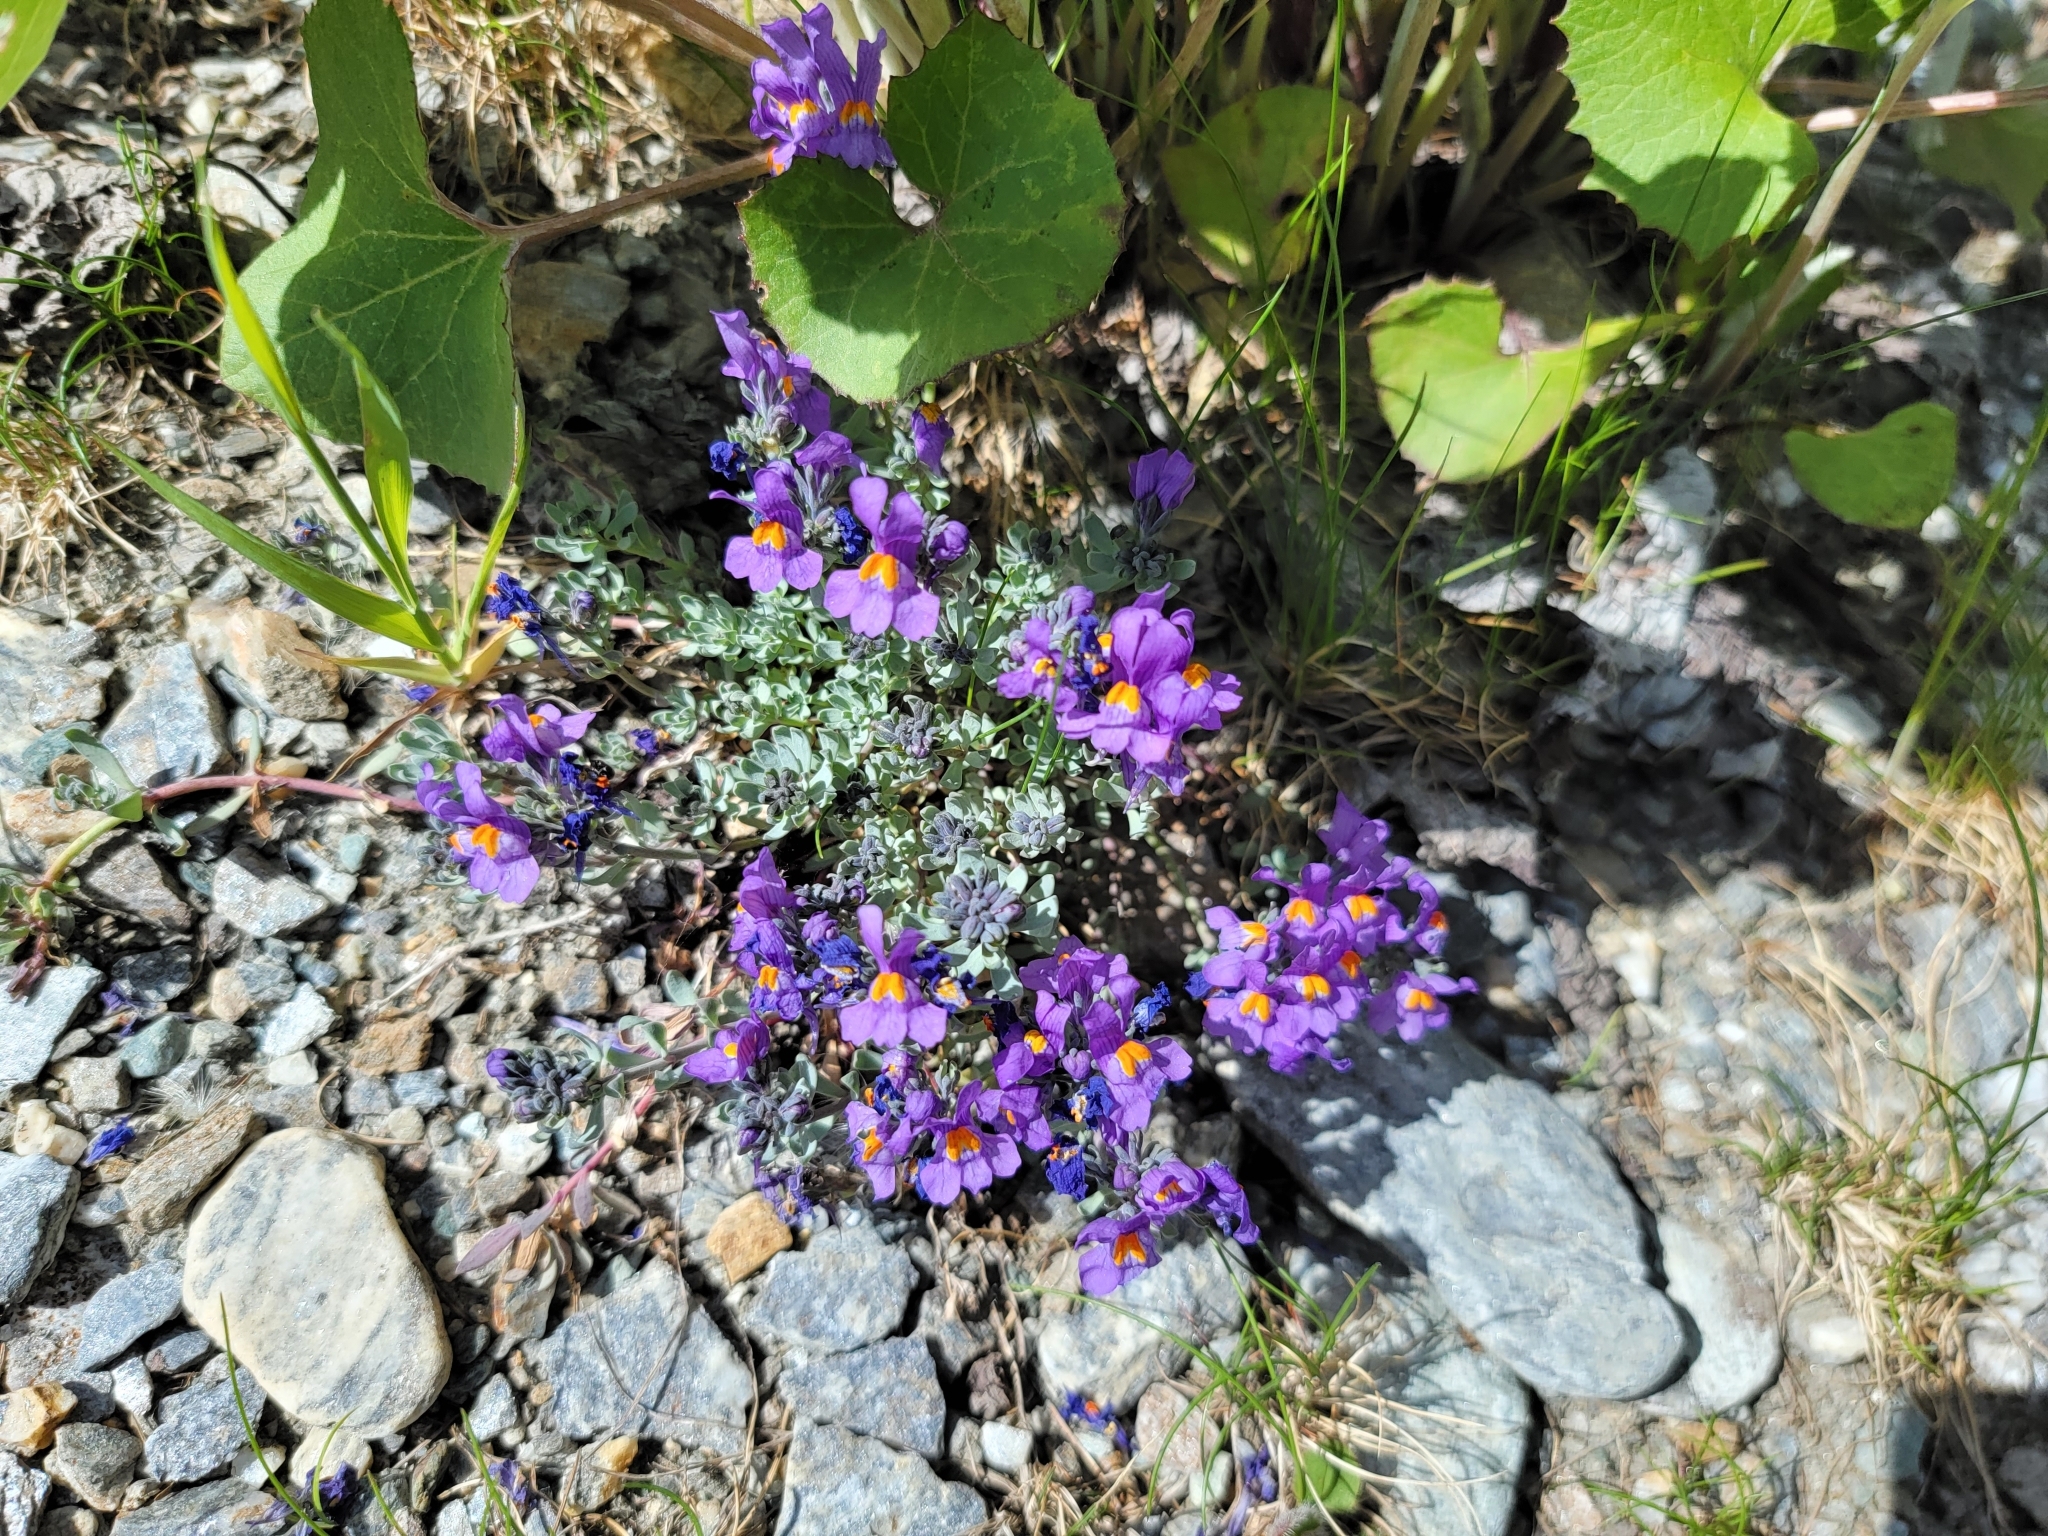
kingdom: Plantae
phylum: Tracheophyta
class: Magnoliopsida
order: Lamiales
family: Plantaginaceae
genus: Linaria
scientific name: Linaria alpina
